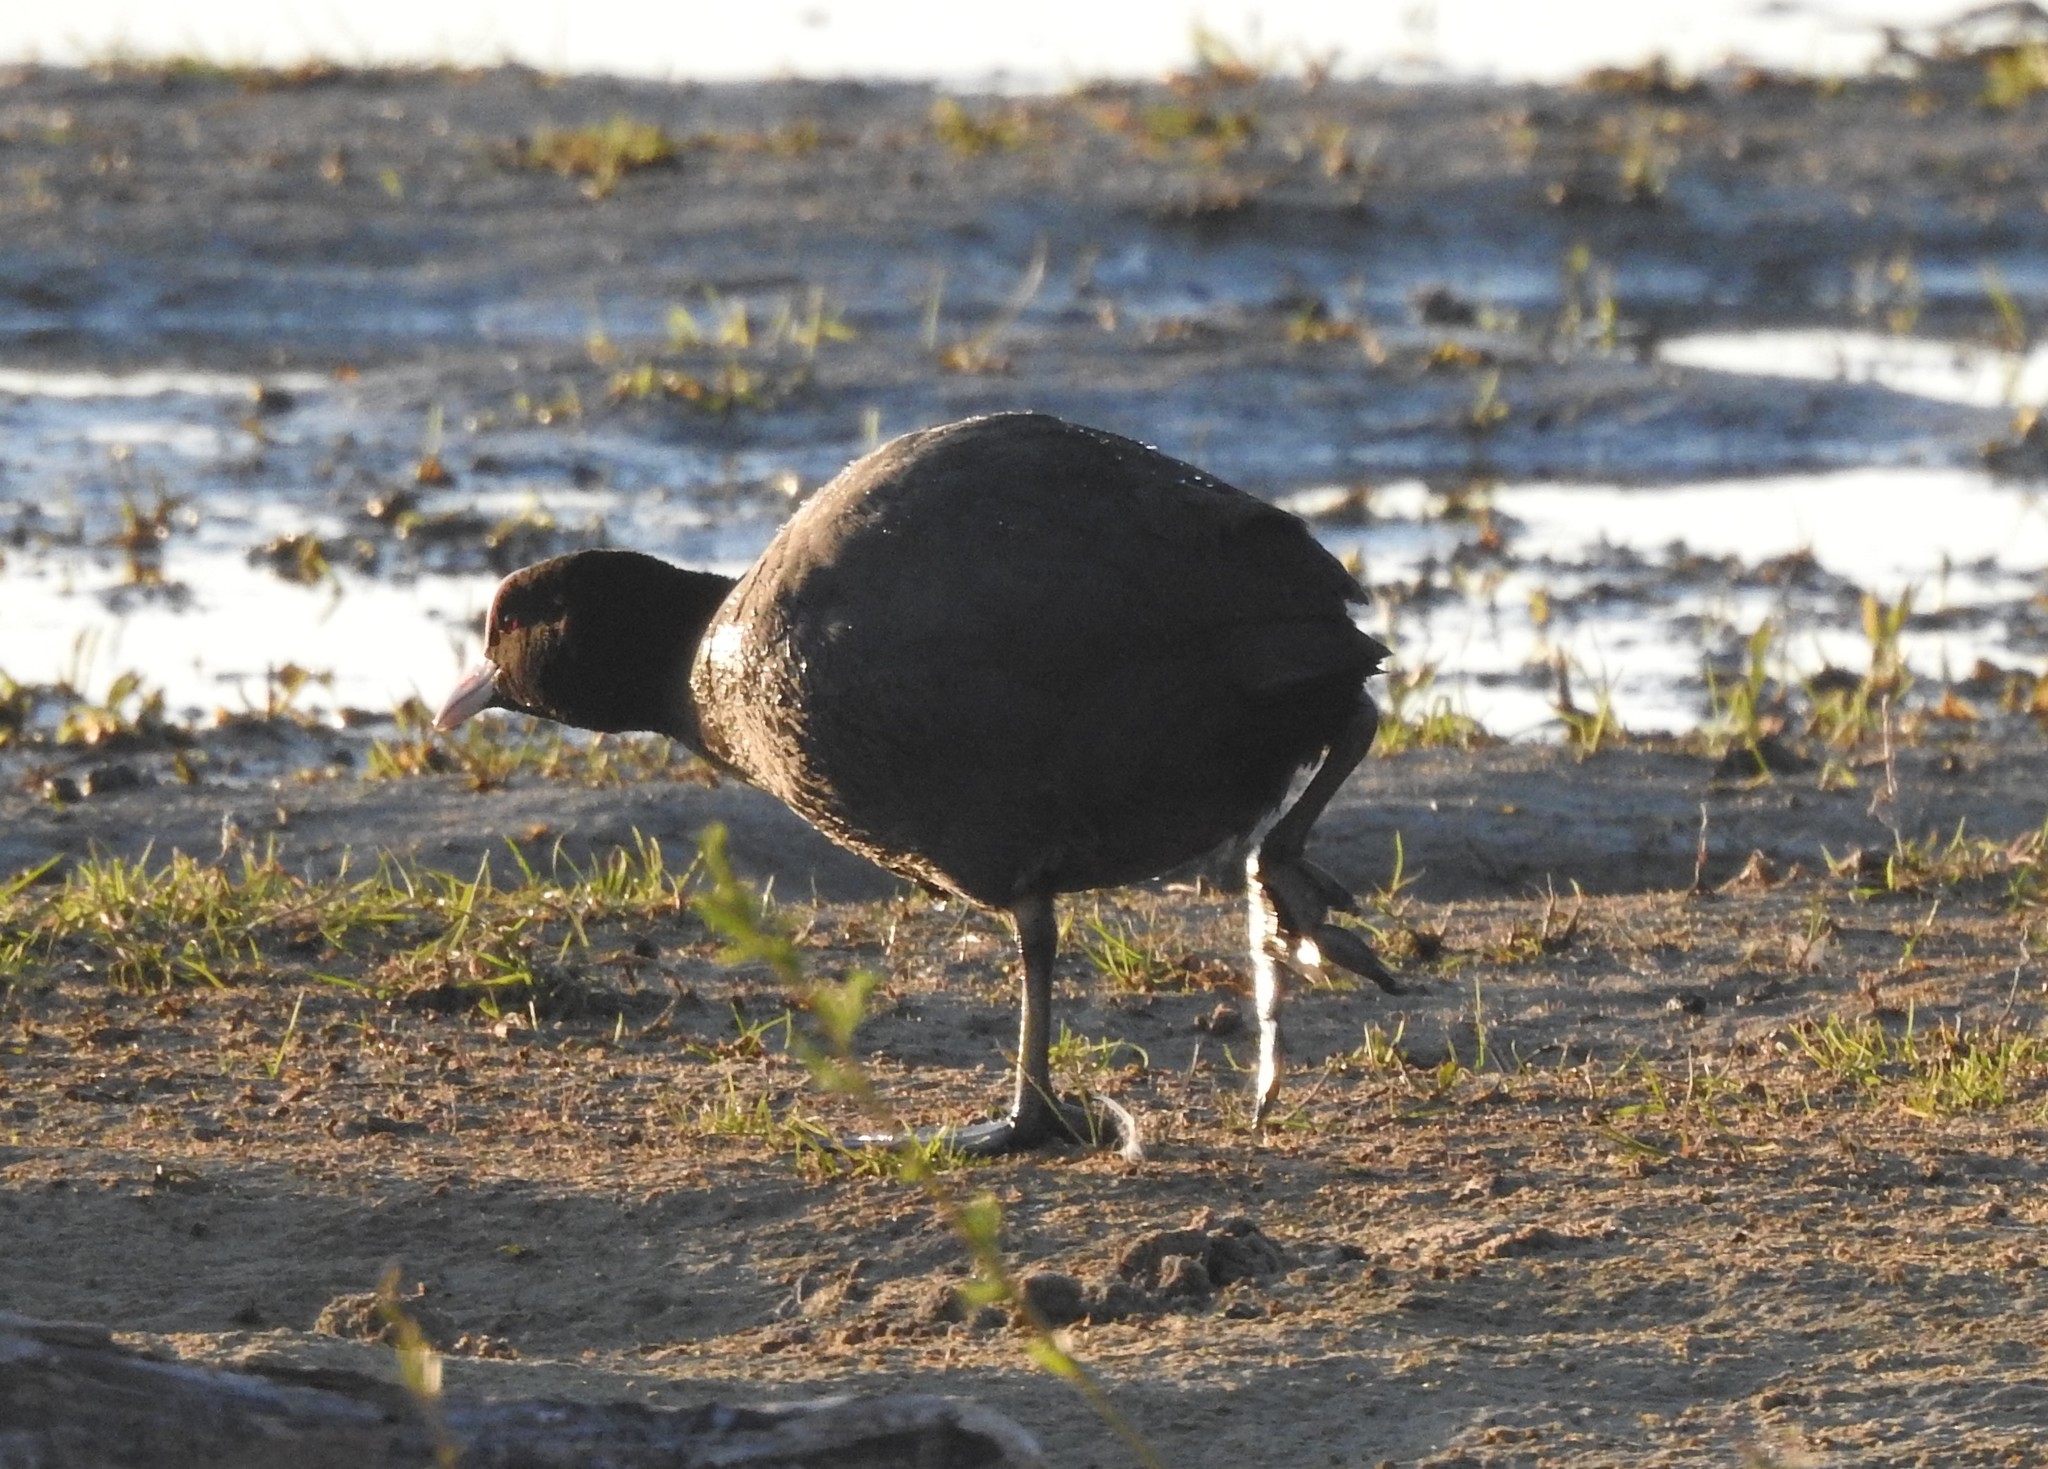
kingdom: Animalia
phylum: Chordata
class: Aves
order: Gruiformes
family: Rallidae
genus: Fulica
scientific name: Fulica atra
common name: Eurasian coot
